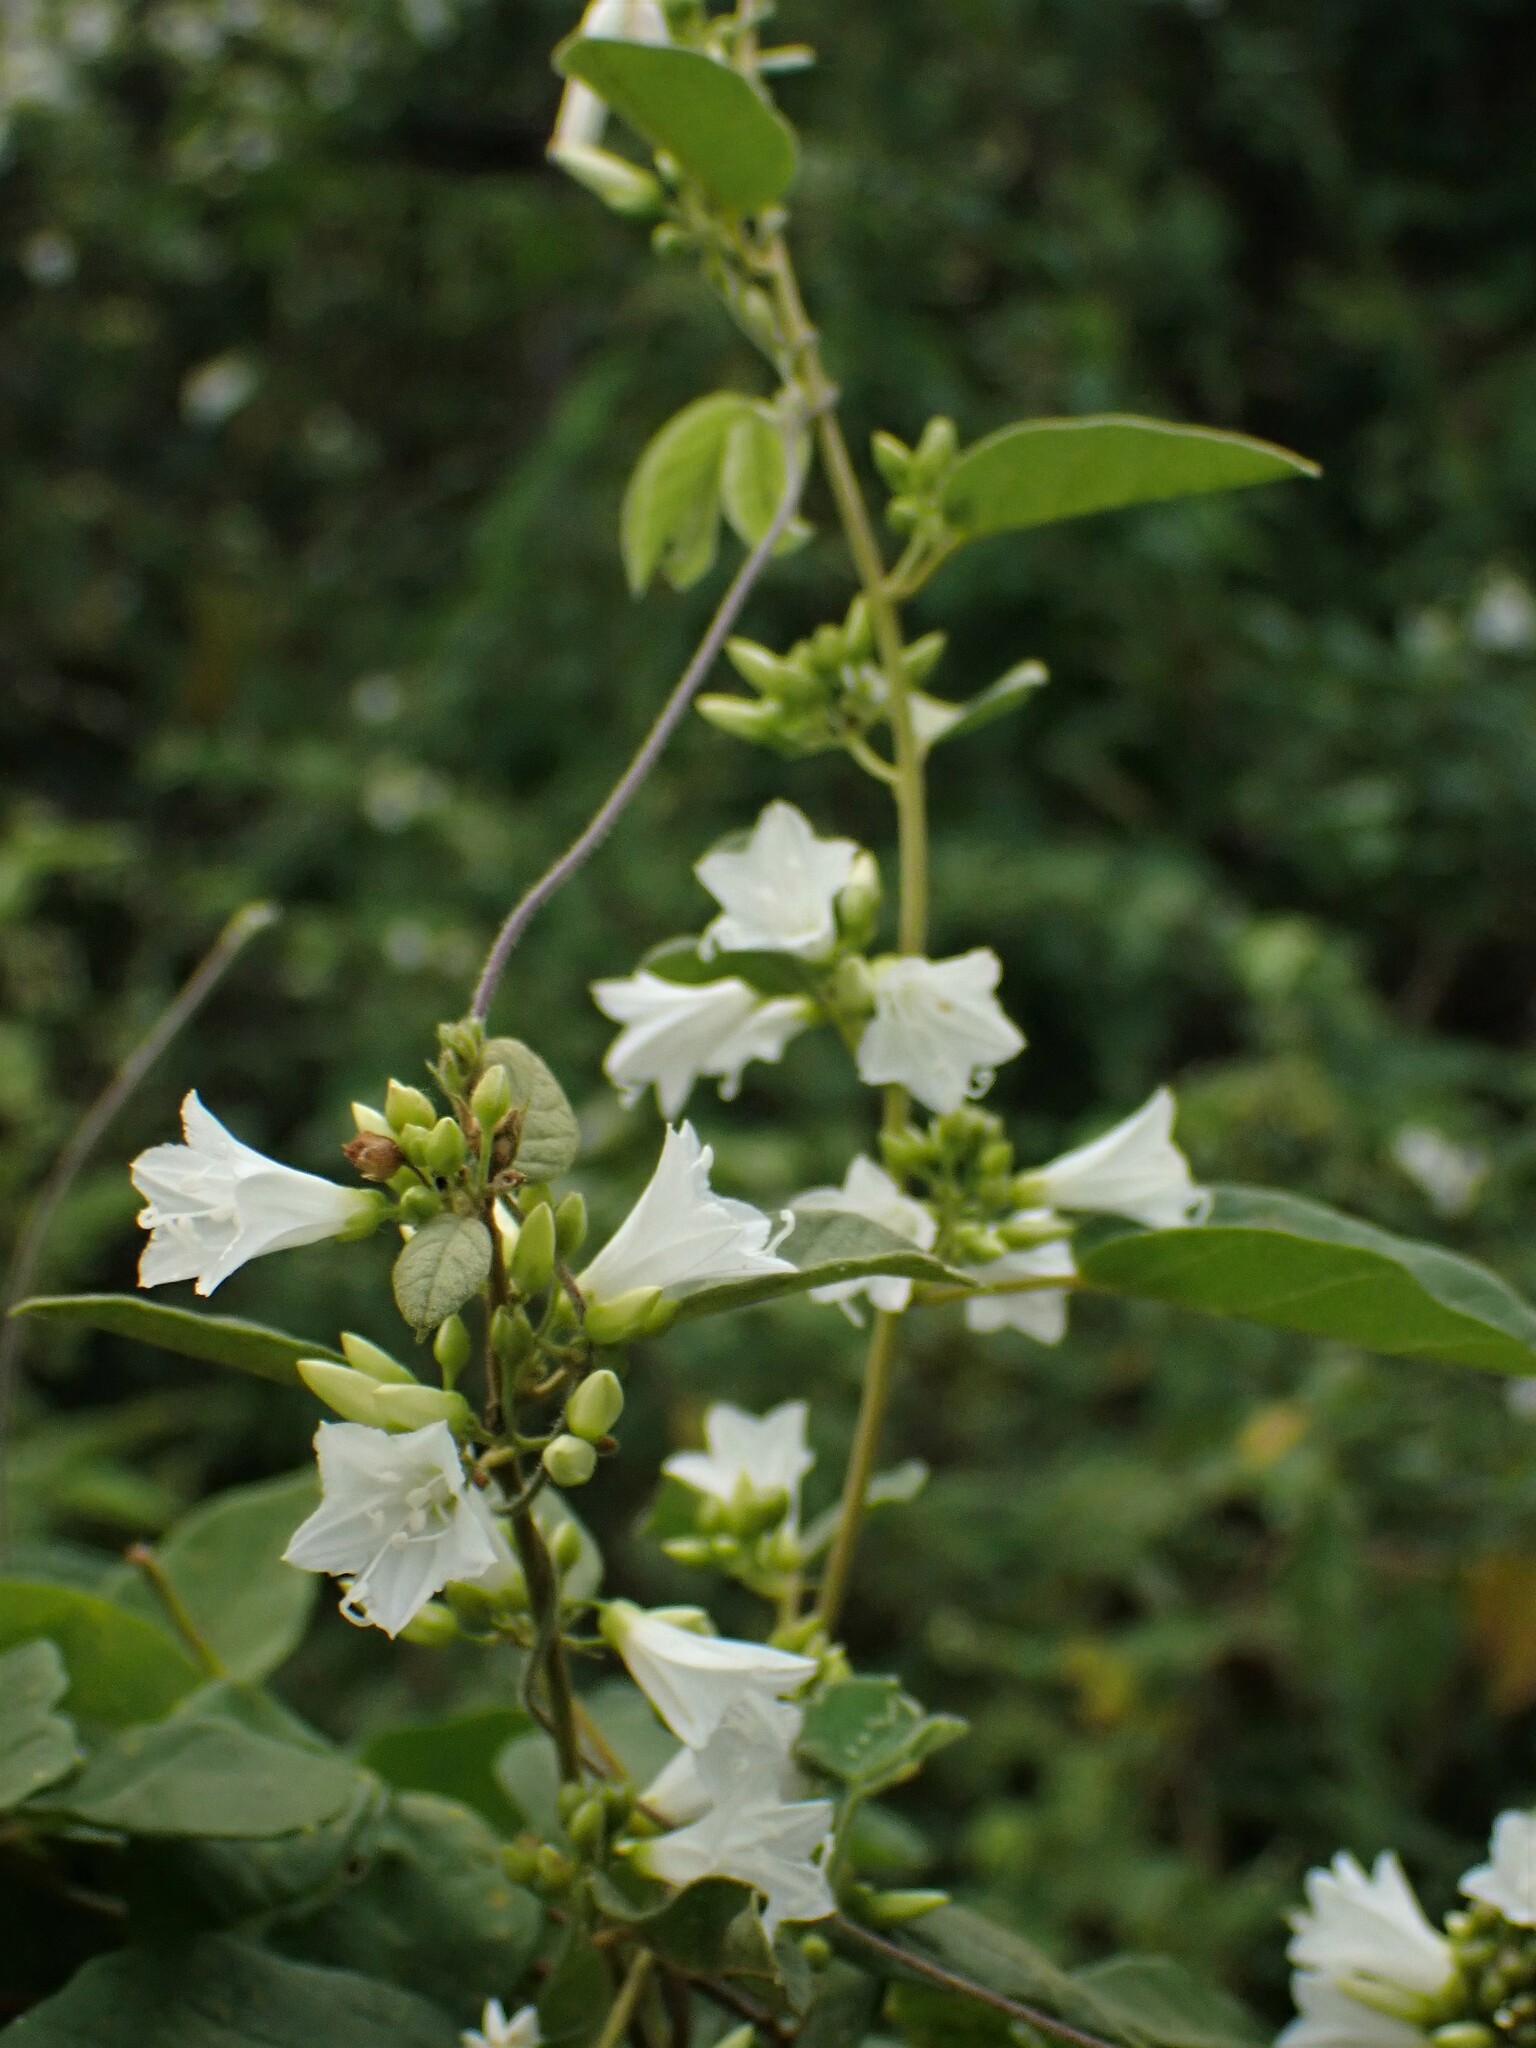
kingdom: Plantae
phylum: Tracheophyta
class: Magnoliopsida
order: Solanales
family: Convolvulaceae
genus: Jacquemontia
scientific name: Jacquemontia nodiflora
